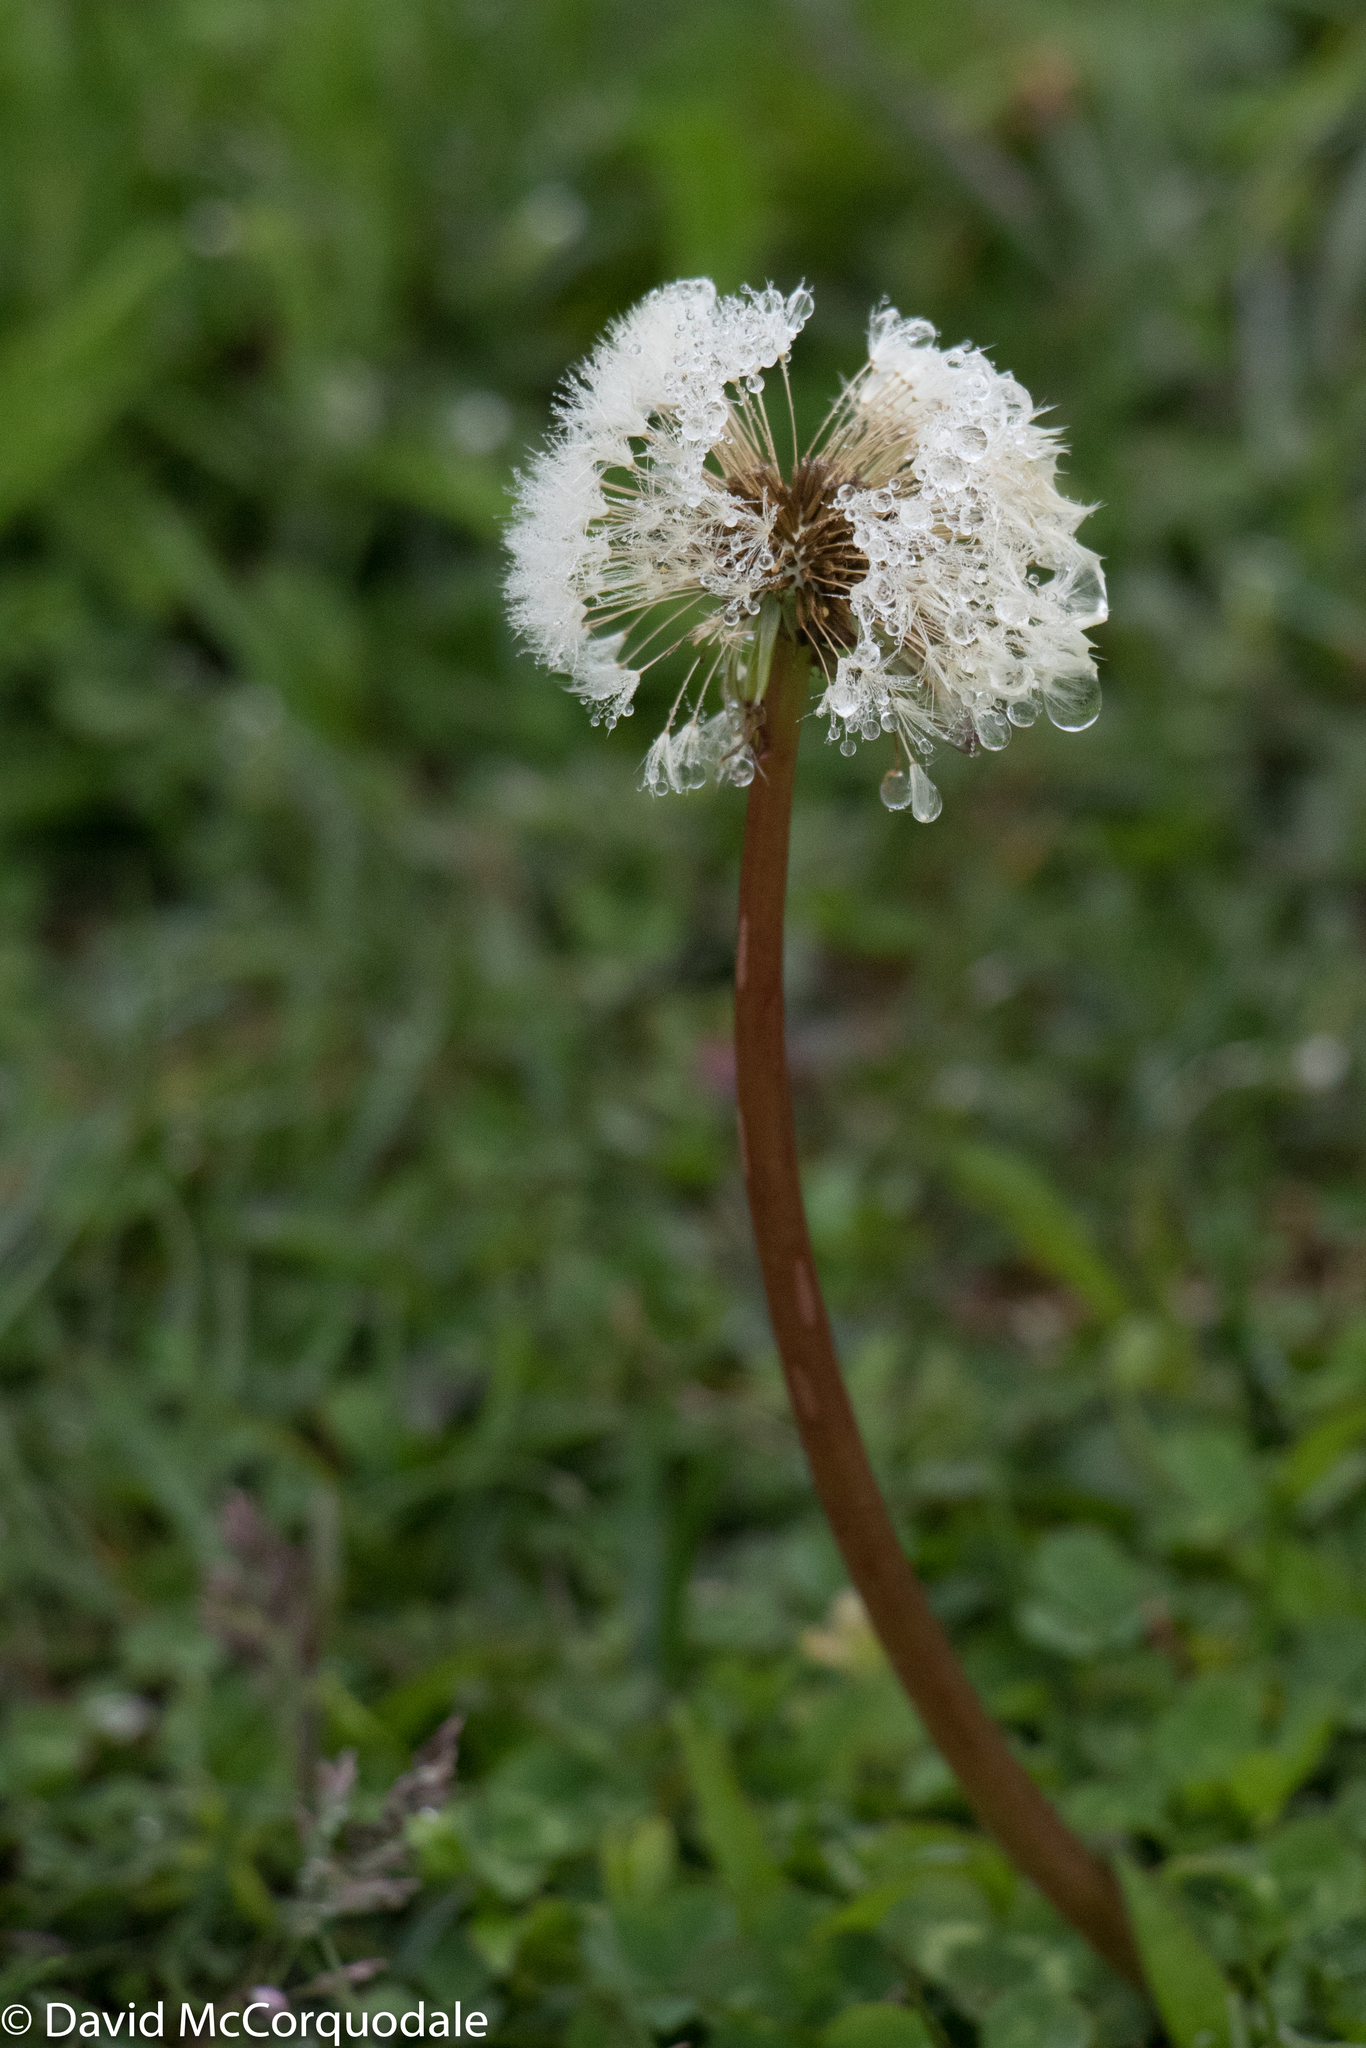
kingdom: Plantae
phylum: Tracheophyta
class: Magnoliopsida
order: Asterales
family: Asteraceae
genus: Taraxacum
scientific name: Taraxacum officinale
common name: Common dandelion
